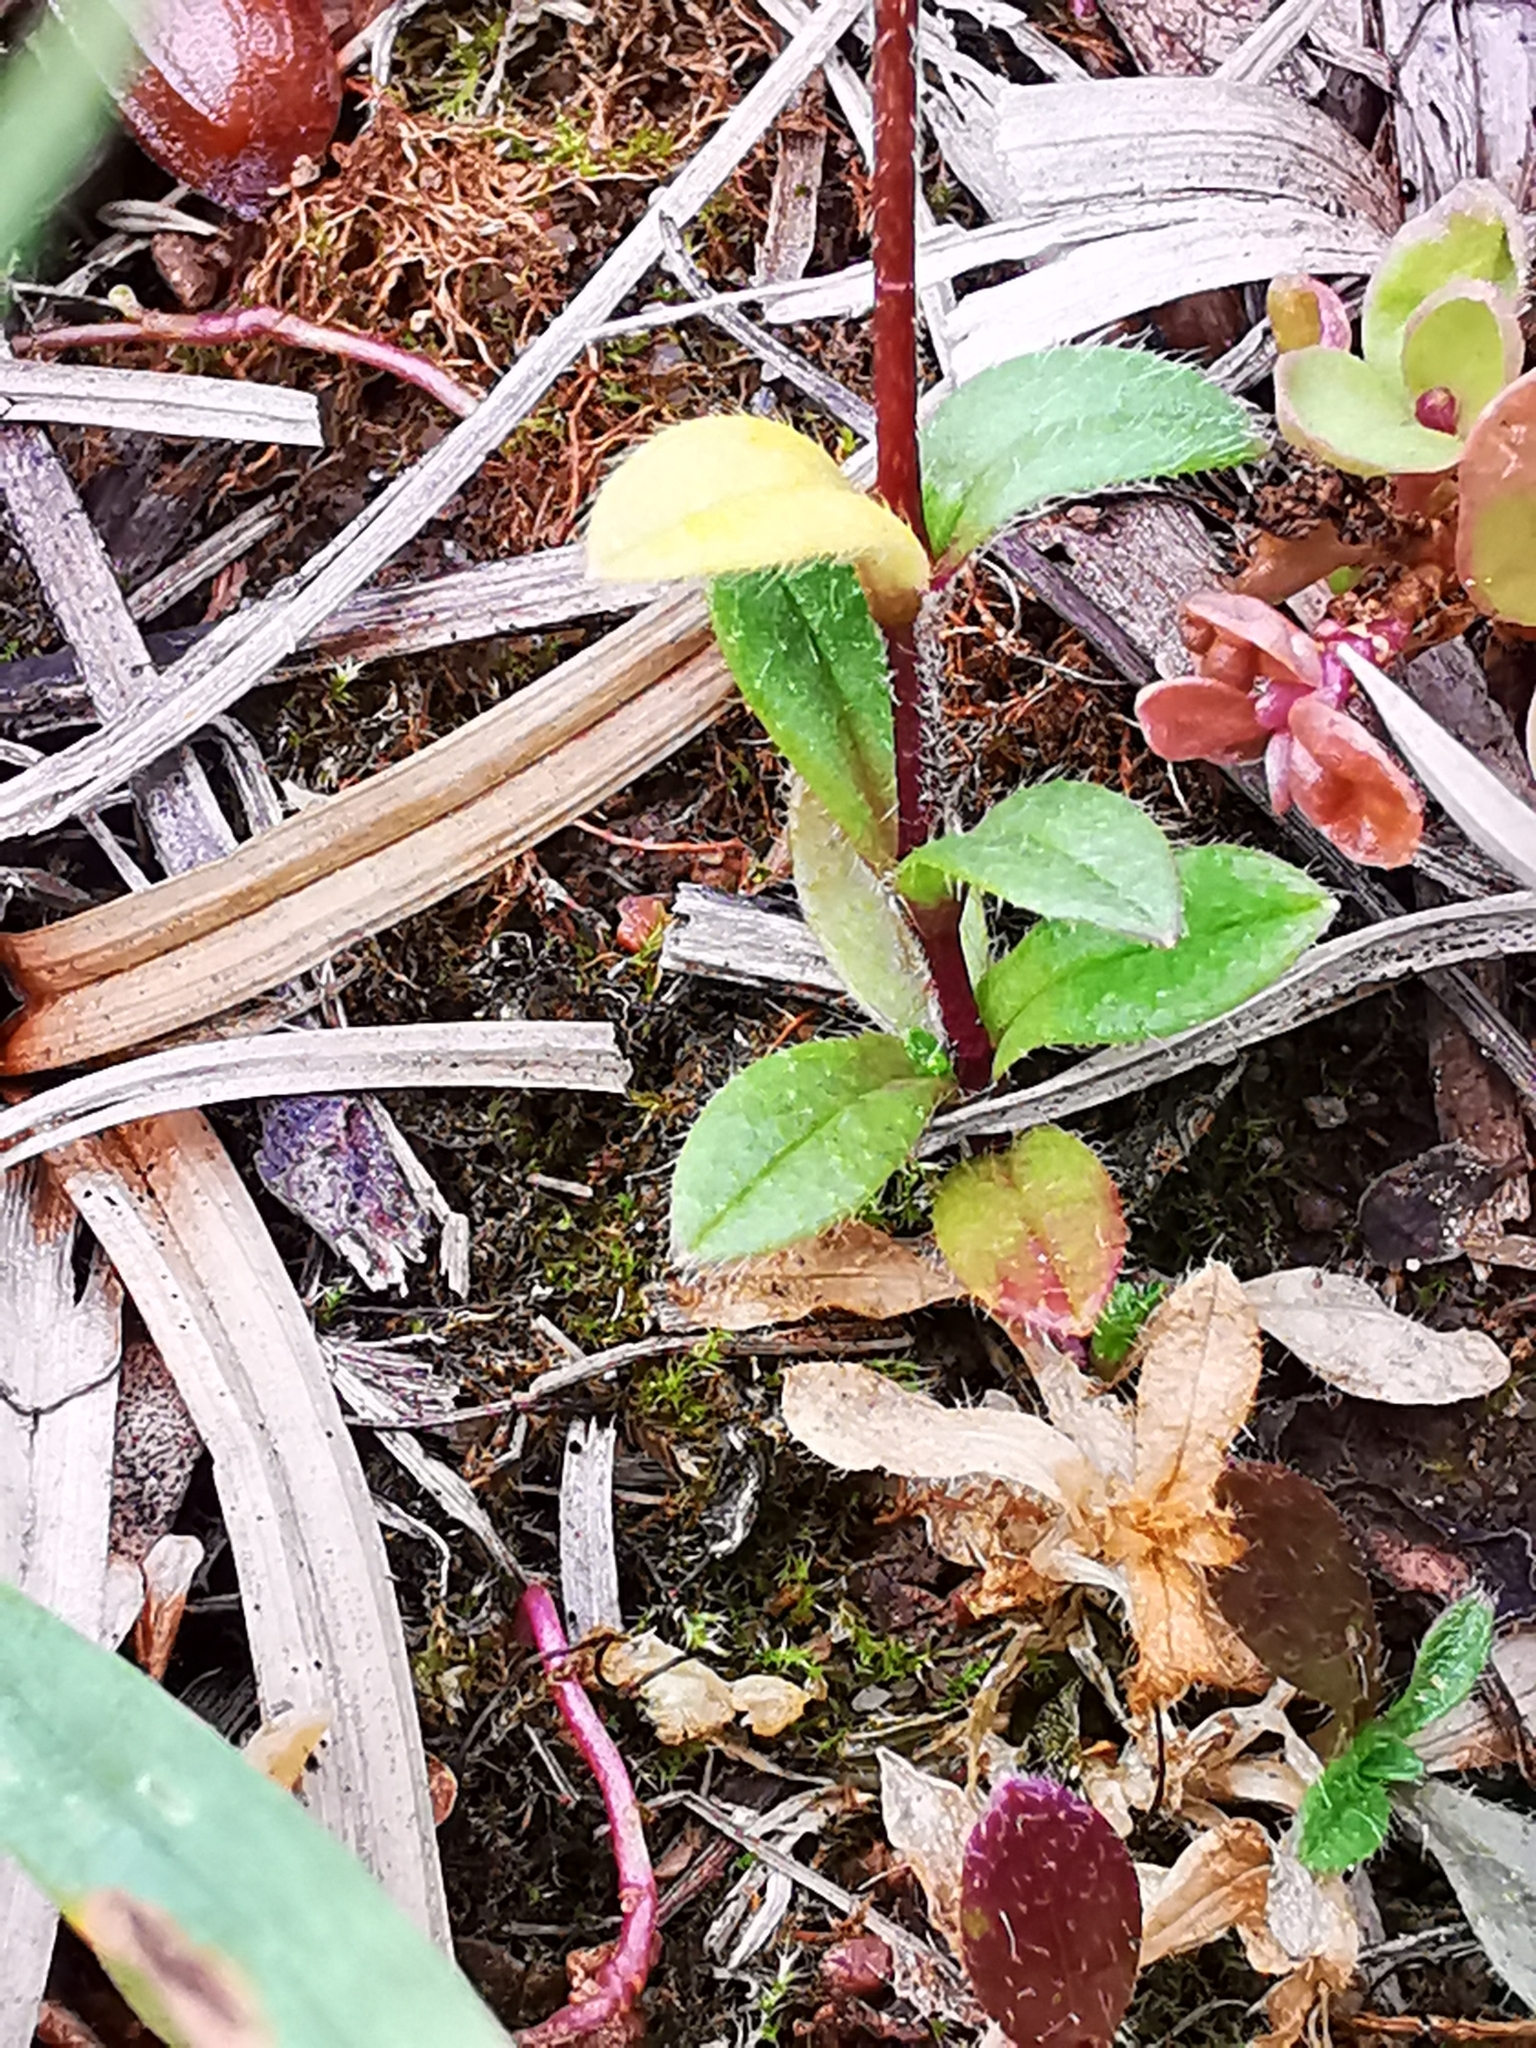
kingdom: Plantae
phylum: Tracheophyta
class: Magnoliopsida
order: Caryophyllales
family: Caryophyllaceae
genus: Cerastium
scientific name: Cerastium semidecandrum
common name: Little mouse-ear
